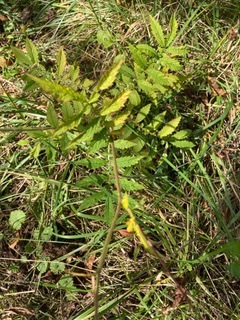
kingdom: Plantae
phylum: Tracheophyta
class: Magnoliopsida
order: Rosales
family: Rosaceae
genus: Agrimonia
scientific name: Agrimonia parviflora
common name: Harvest-lice
